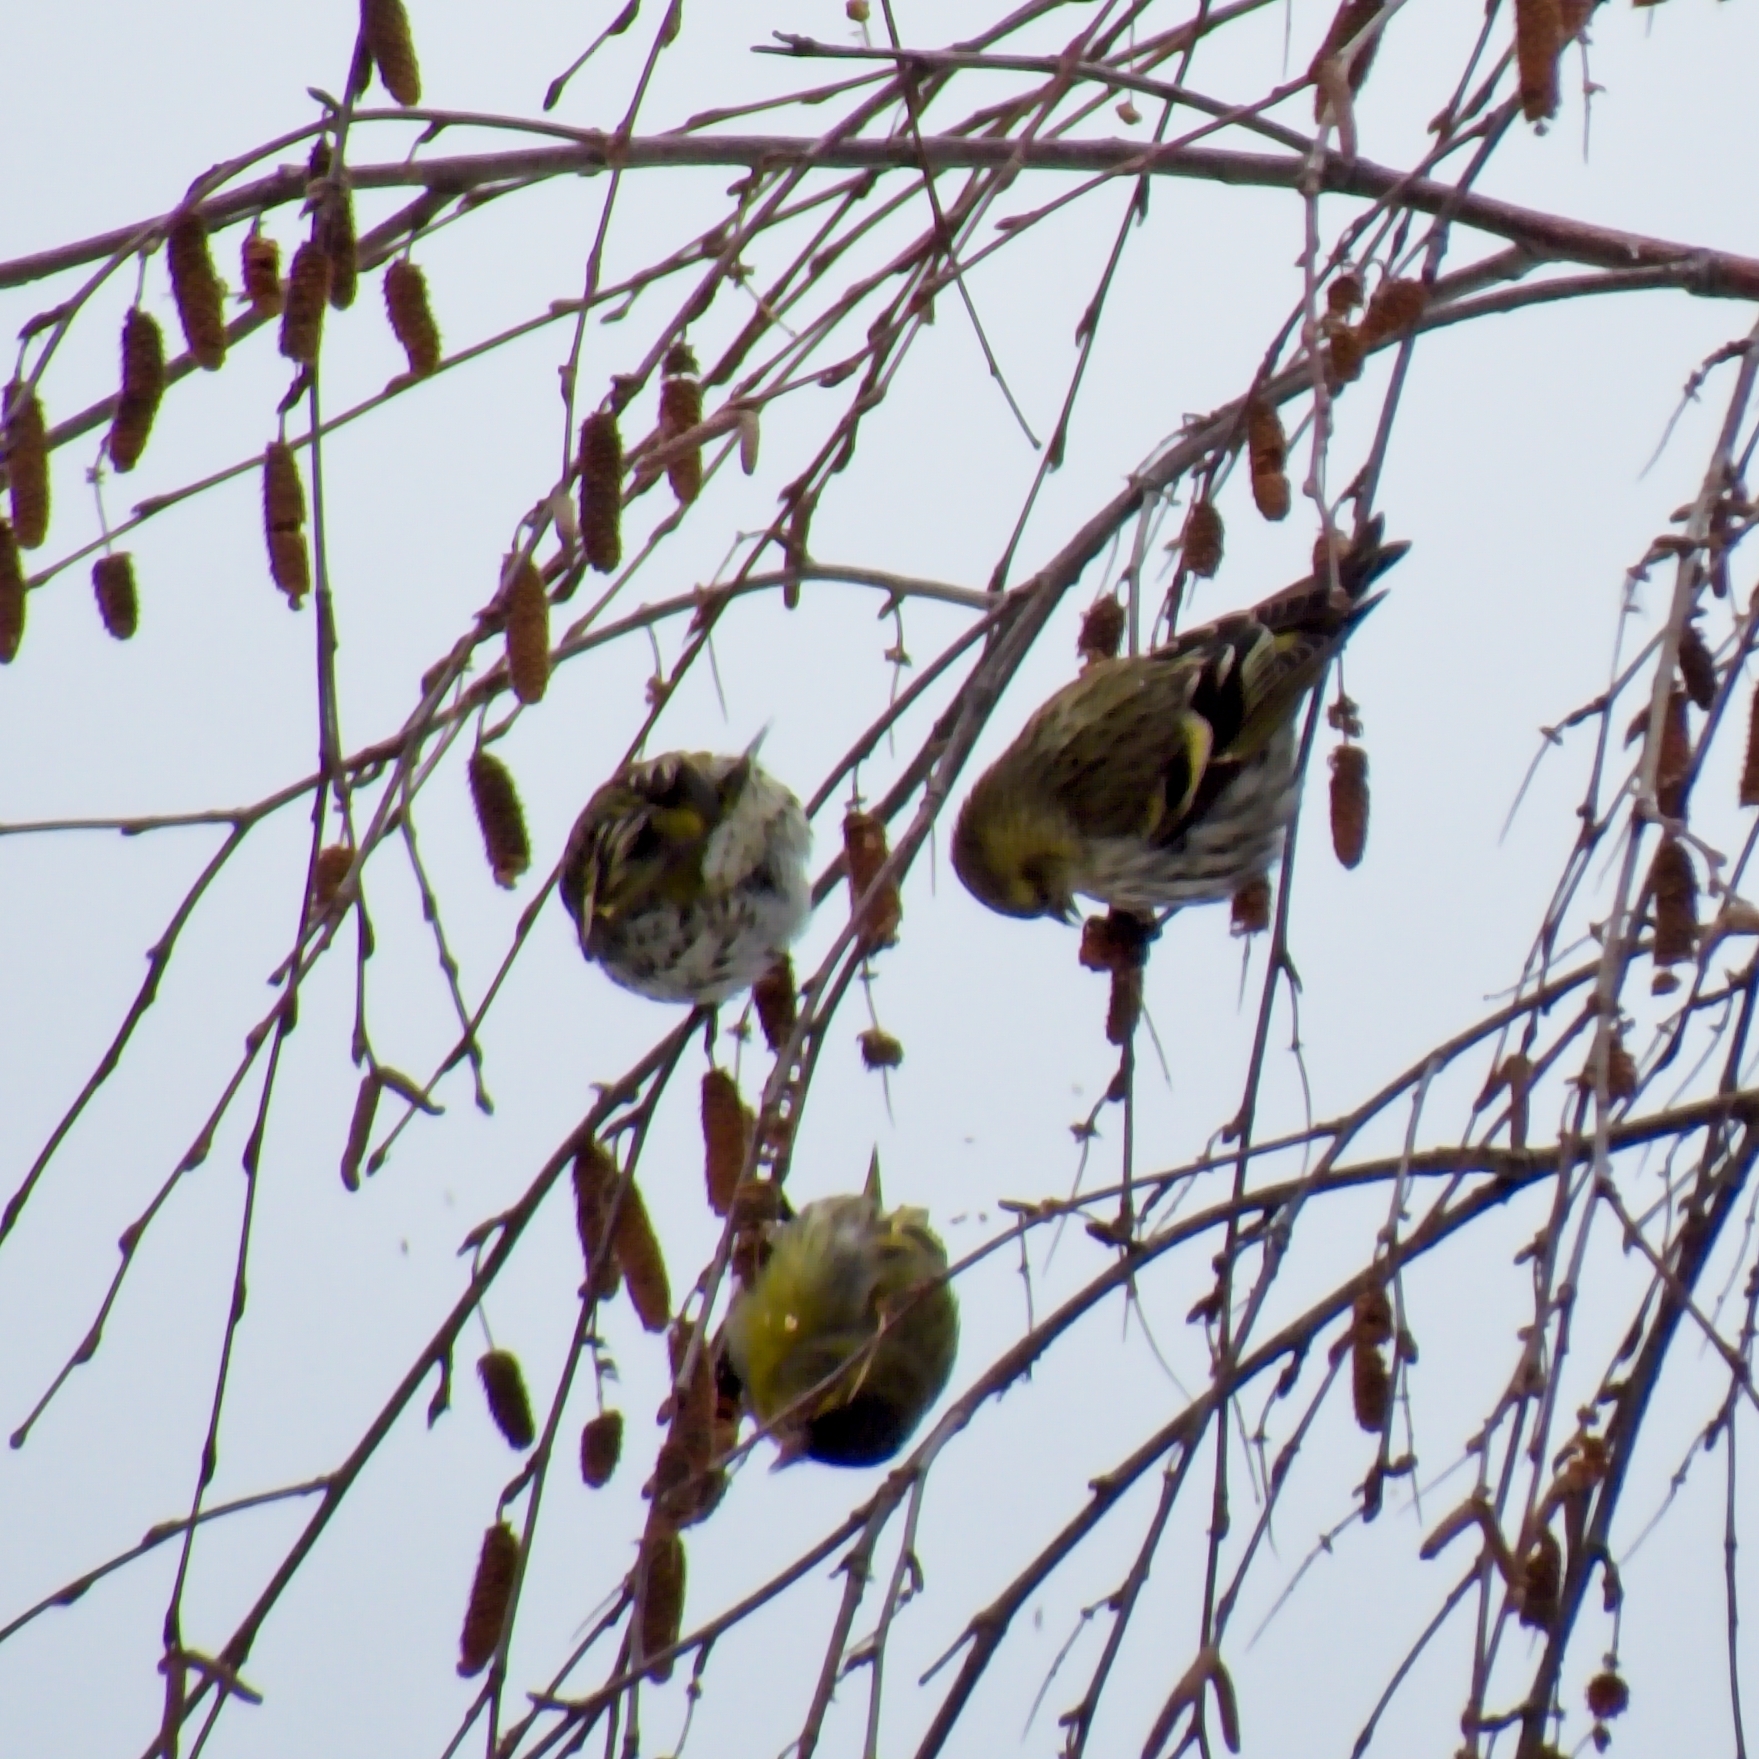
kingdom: Animalia
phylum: Chordata
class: Aves
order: Passeriformes
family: Fringillidae
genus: Spinus
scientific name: Spinus spinus
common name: Eurasian siskin
